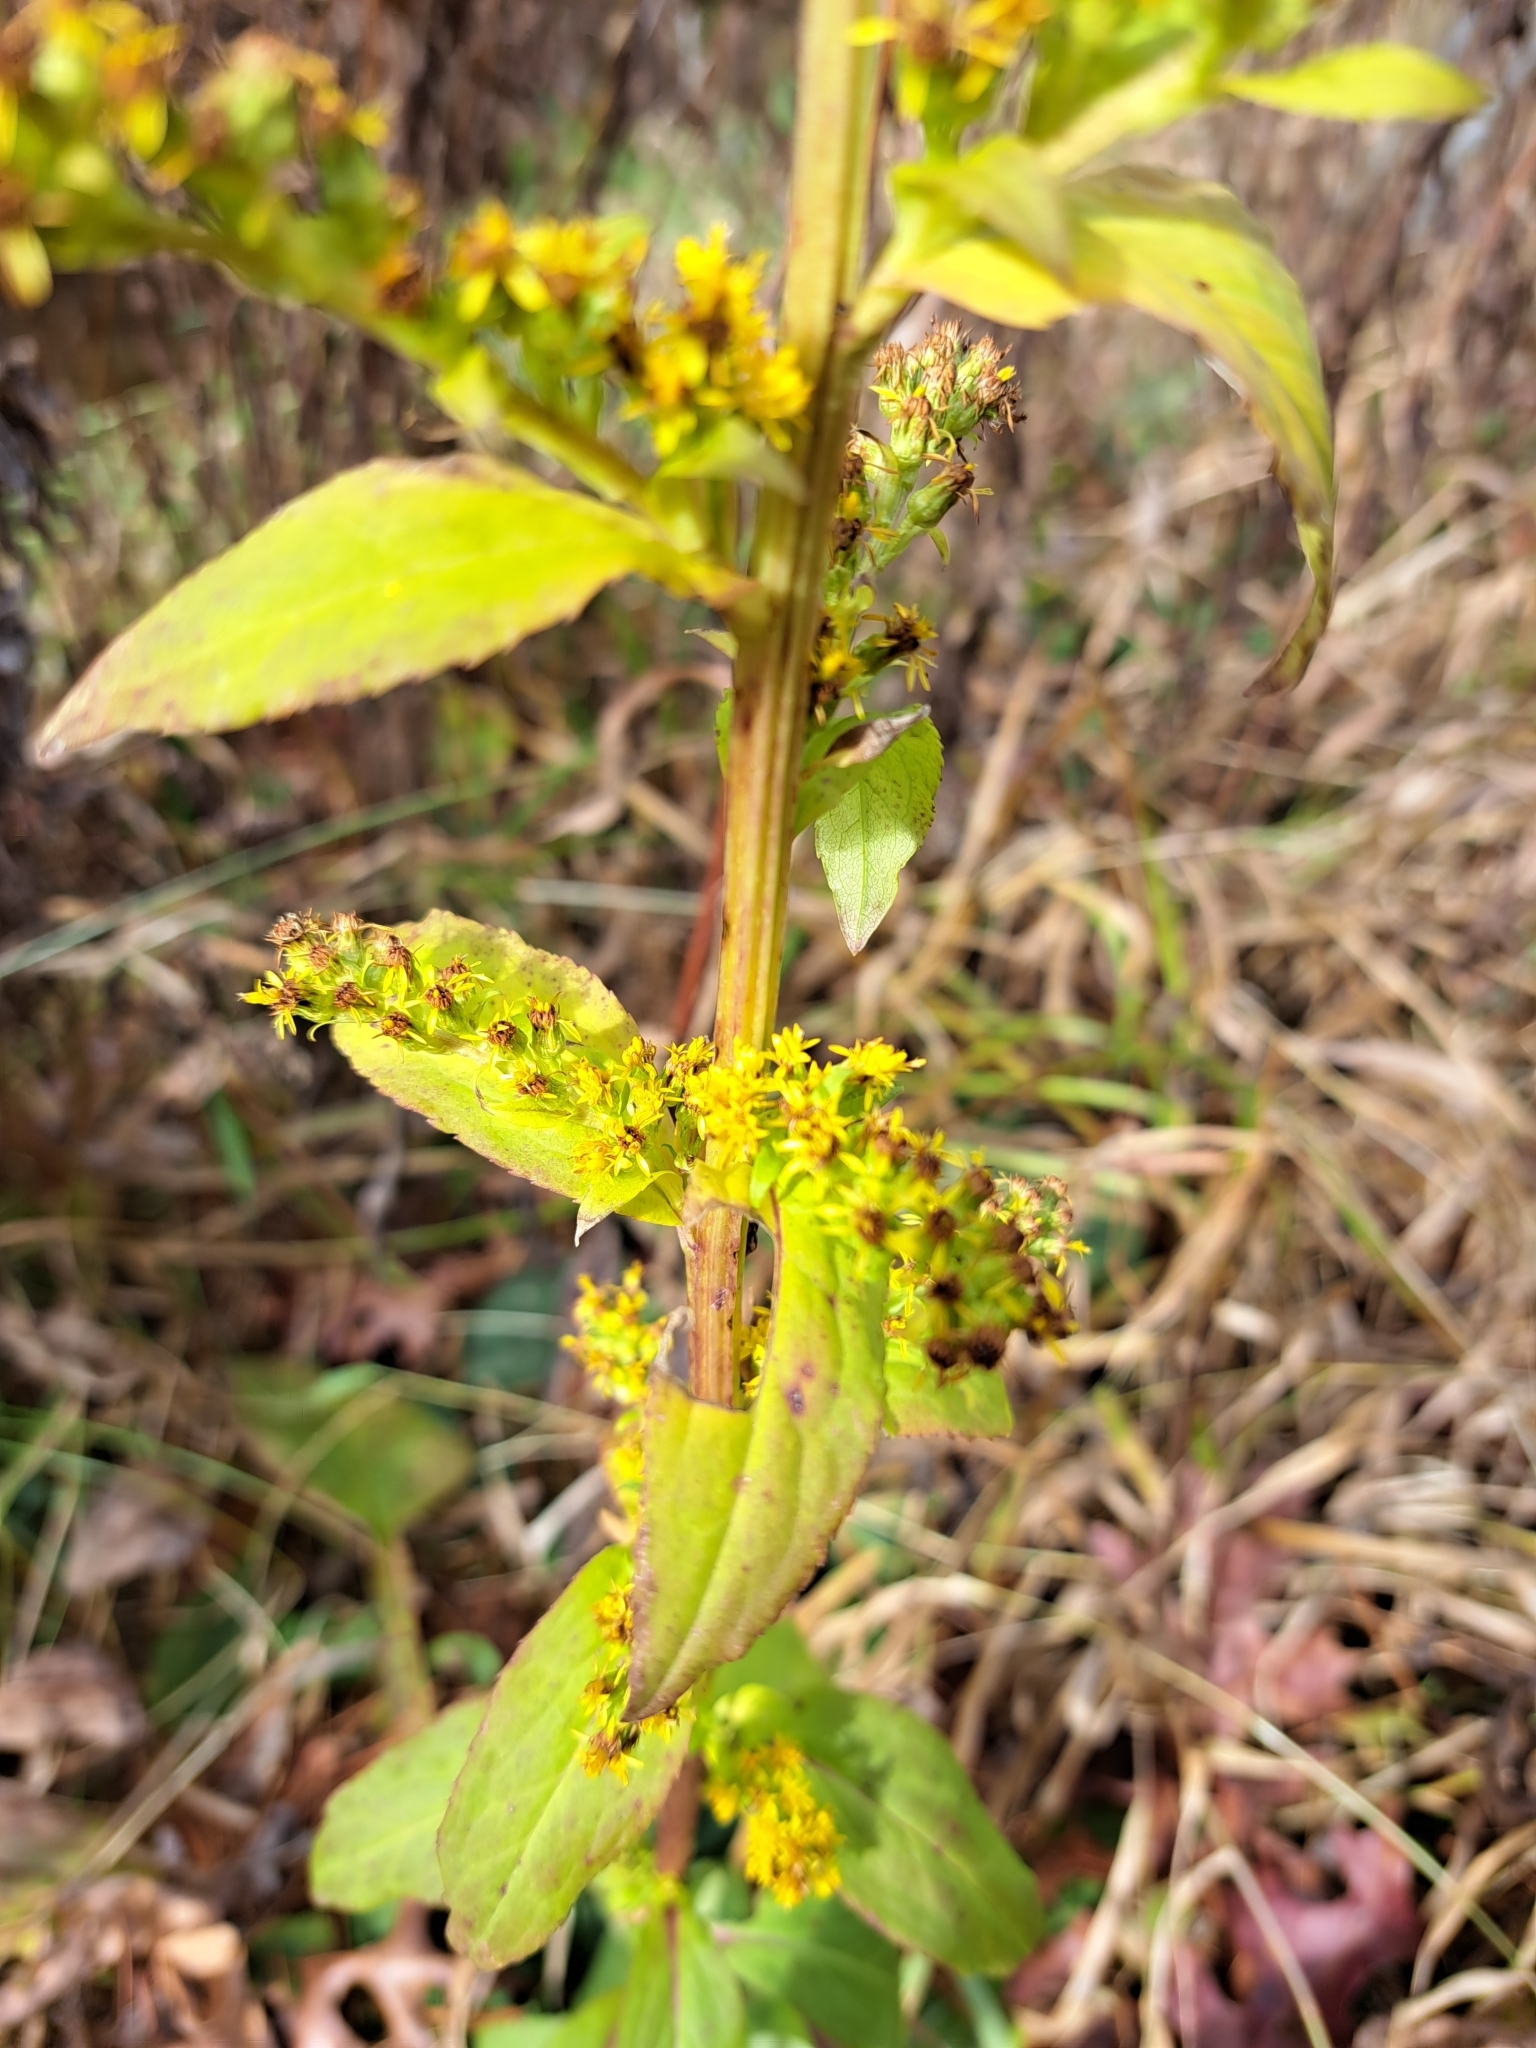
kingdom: Plantae
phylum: Tracheophyta
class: Magnoliopsida
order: Asterales
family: Asteraceae
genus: Solidago
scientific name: Solidago patula
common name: Rough-leaf goldenrod
